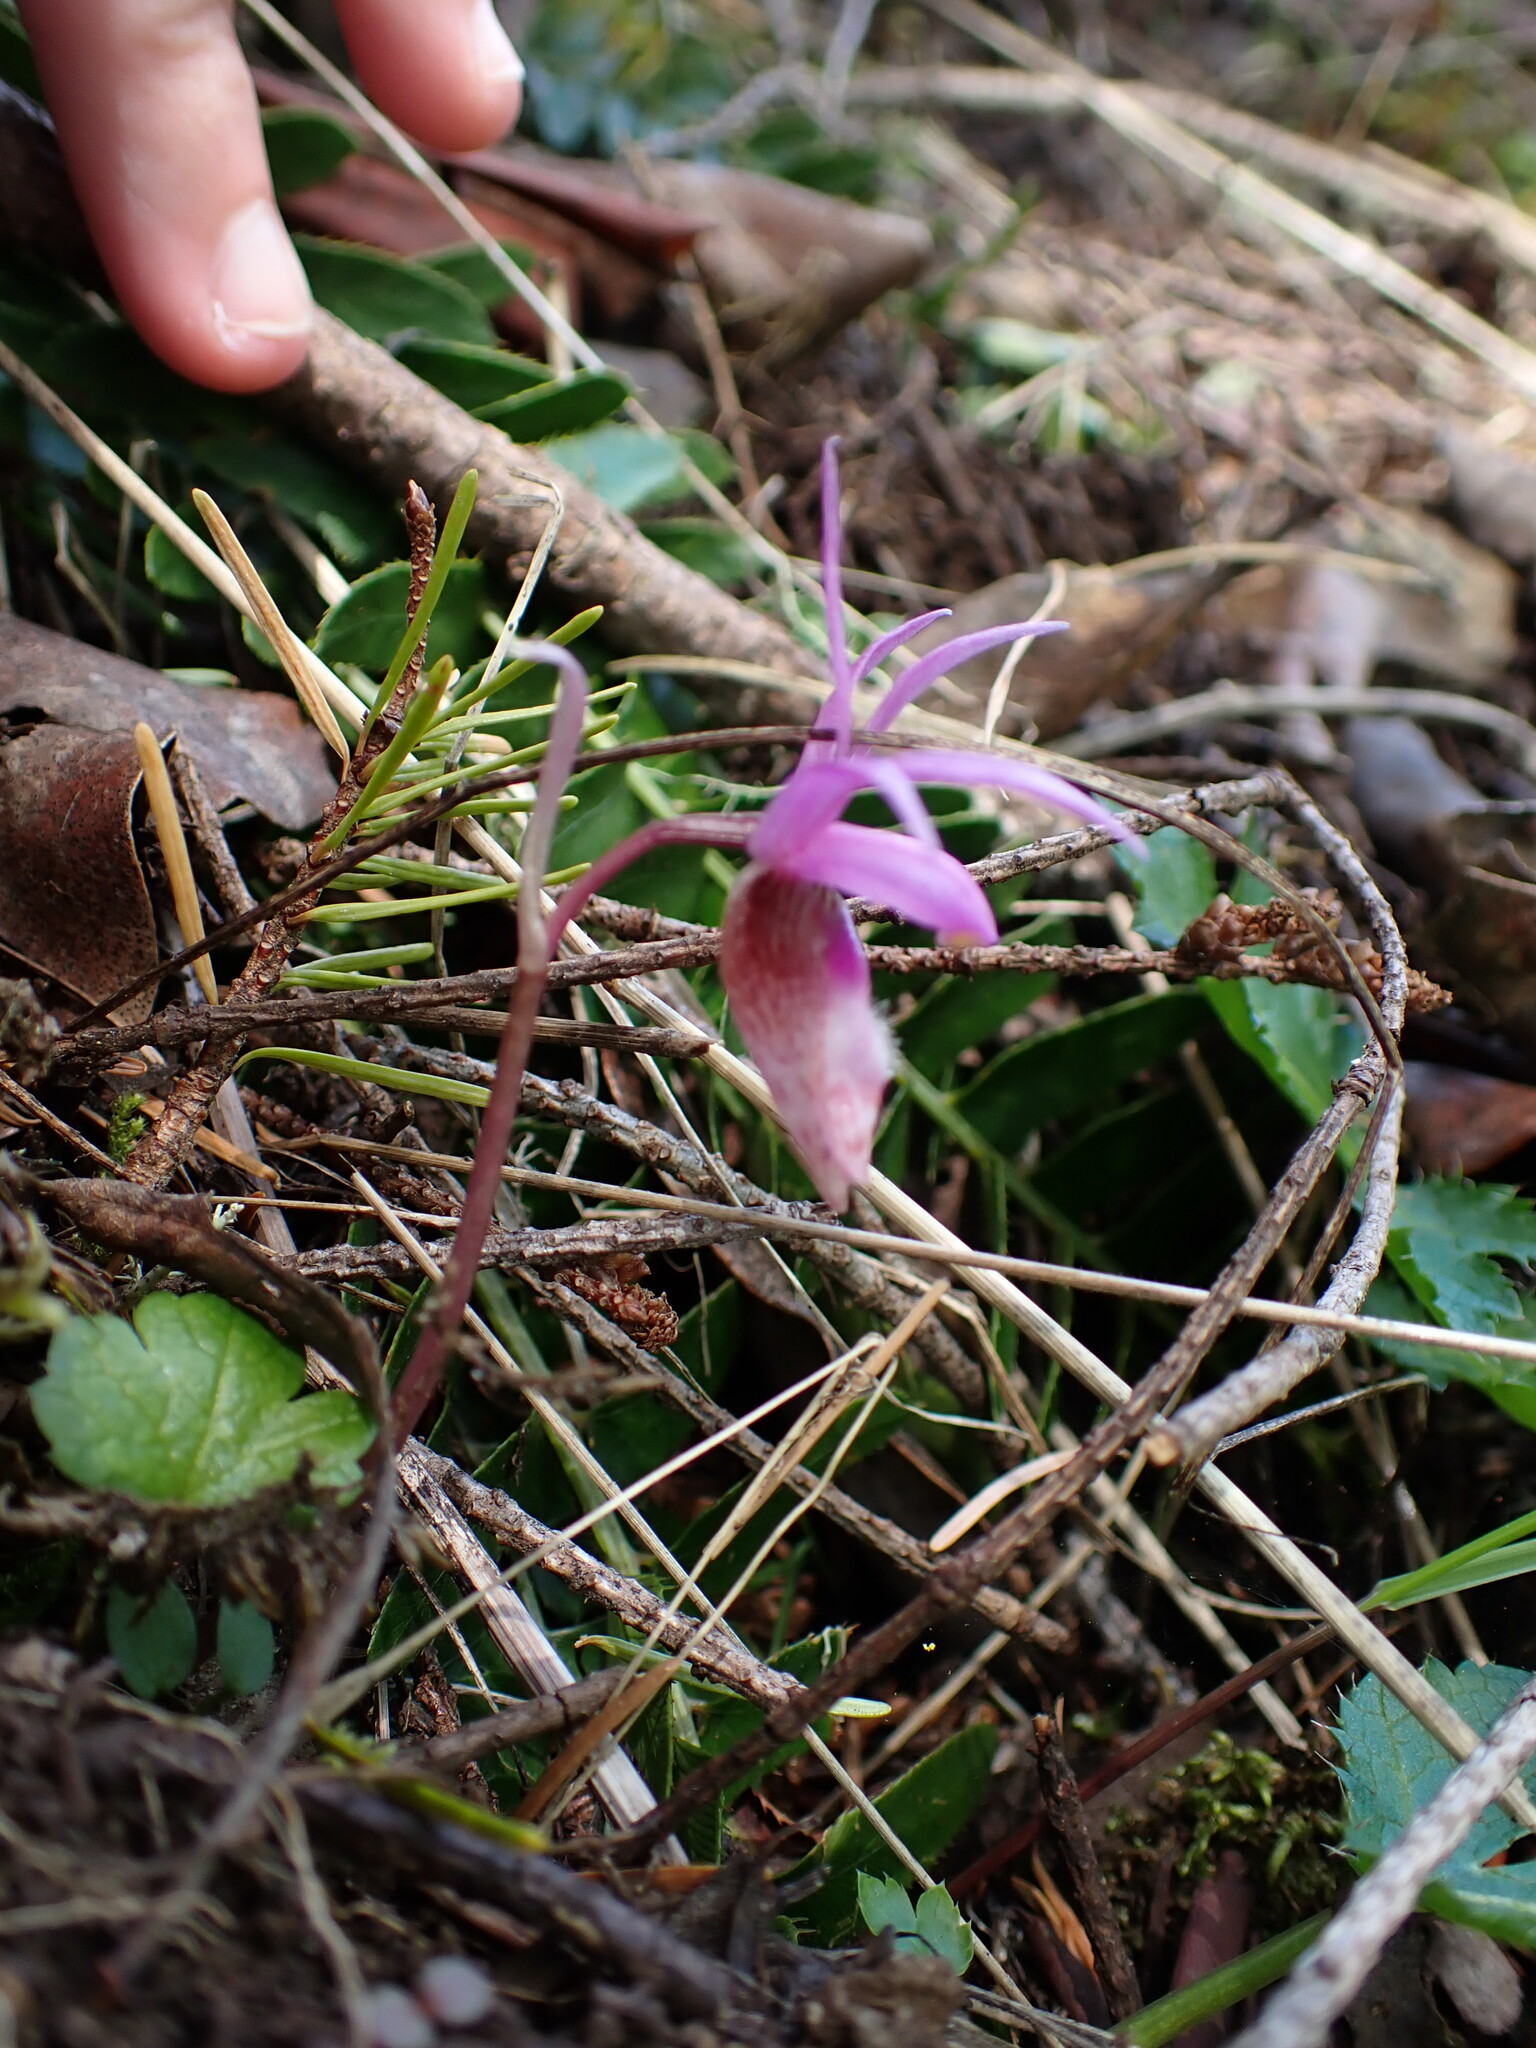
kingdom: Plantae
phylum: Tracheophyta
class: Liliopsida
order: Asparagales
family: Orchidaceae
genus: Calypso
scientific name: Calypso bulbosa
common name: Calypso
